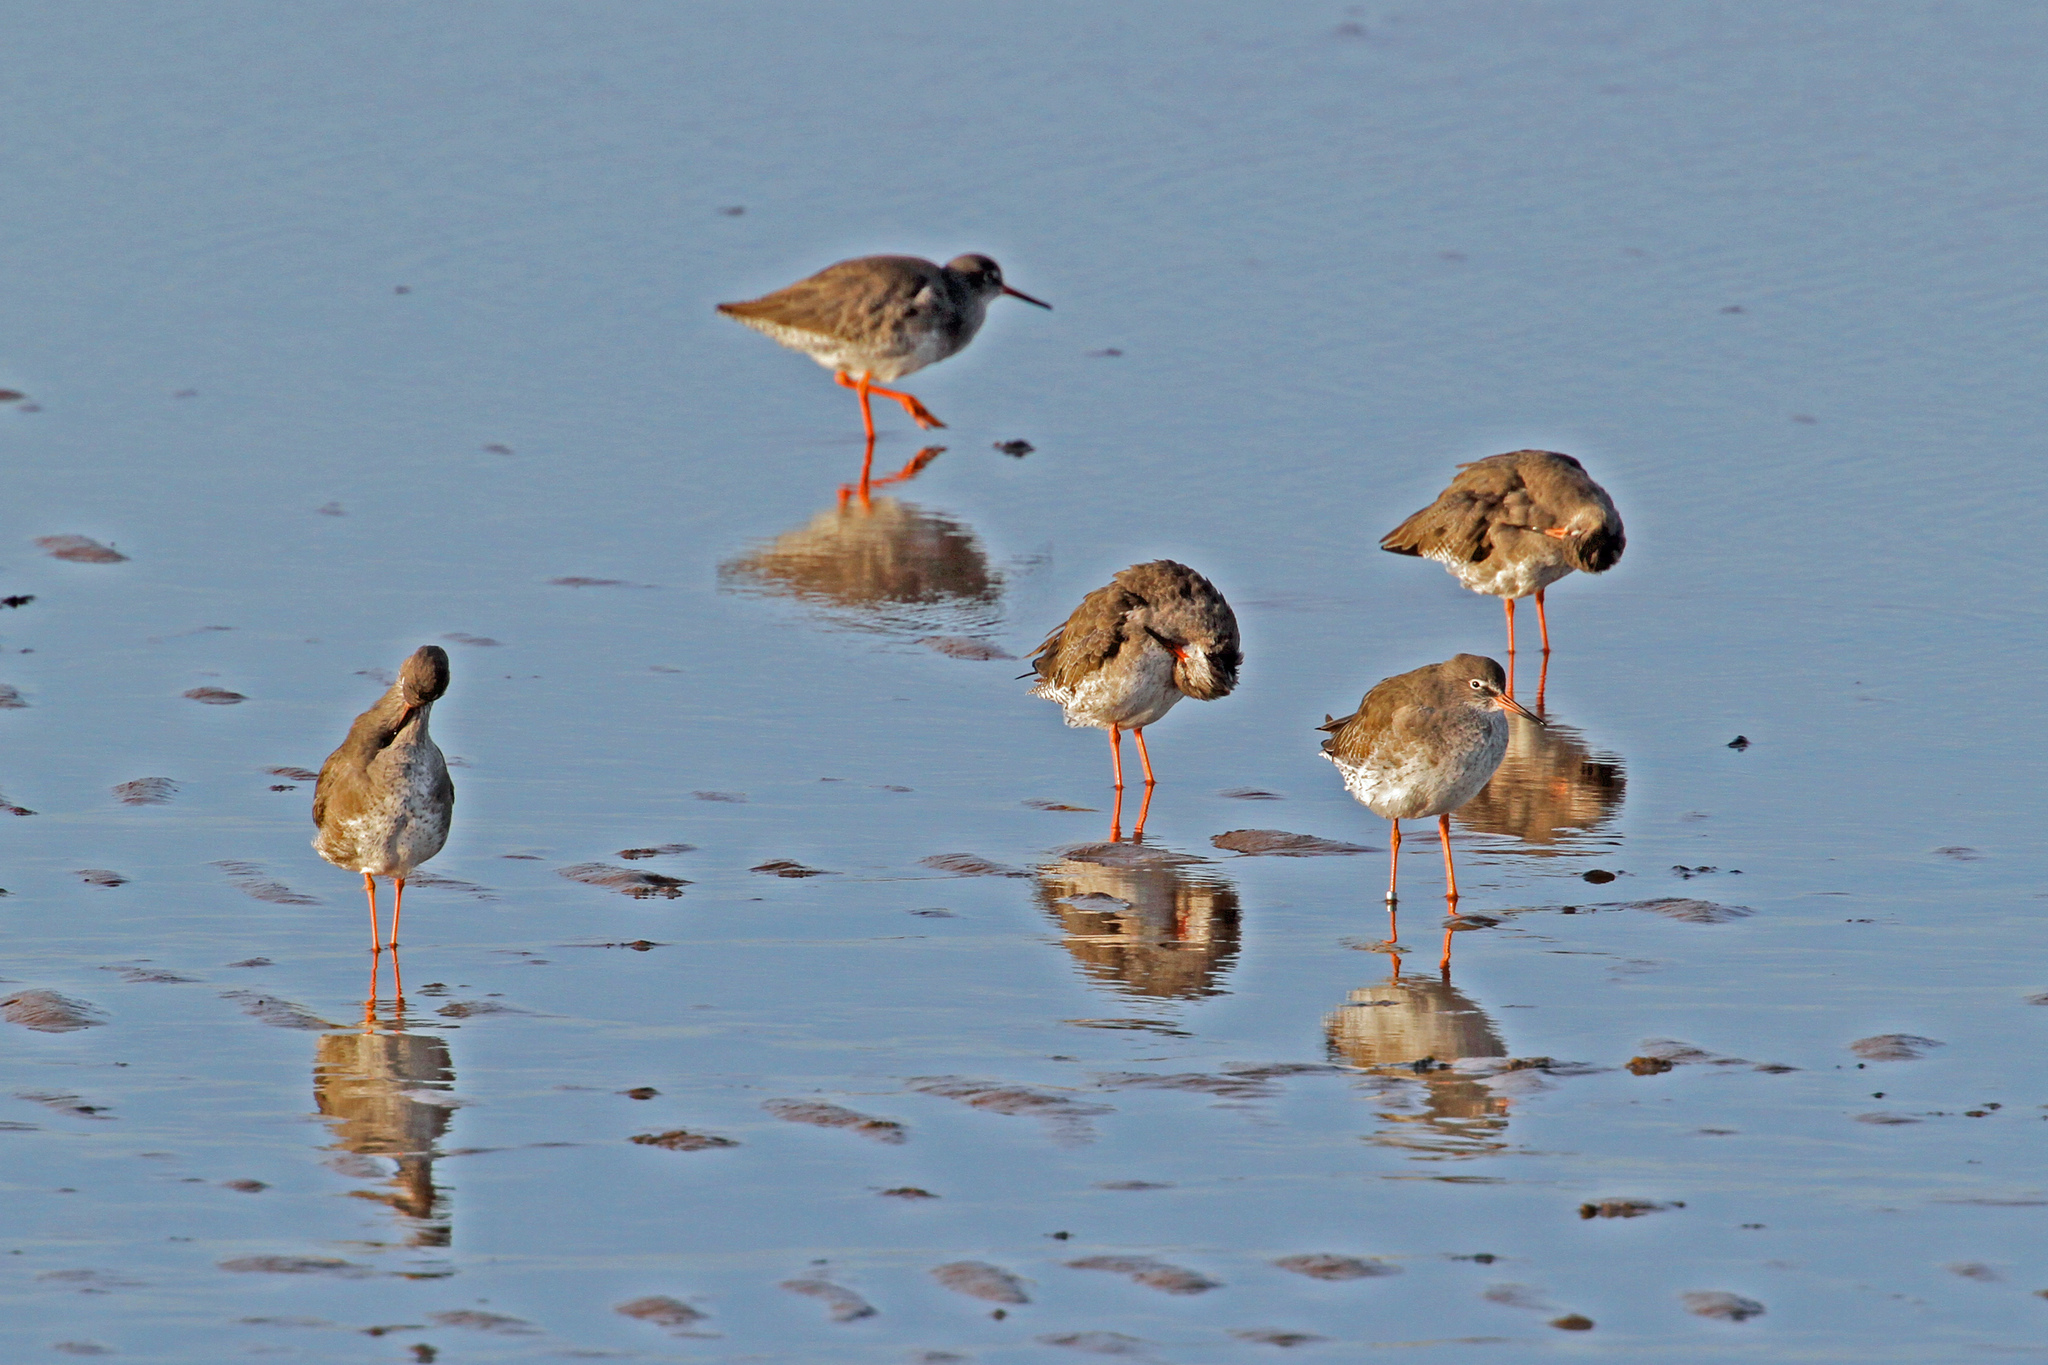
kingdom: Animalia
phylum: Chordata
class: Aves
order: Charadriiformes
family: Scolopacidae
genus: Tringa
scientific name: Tringa totanus
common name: Common redshank
